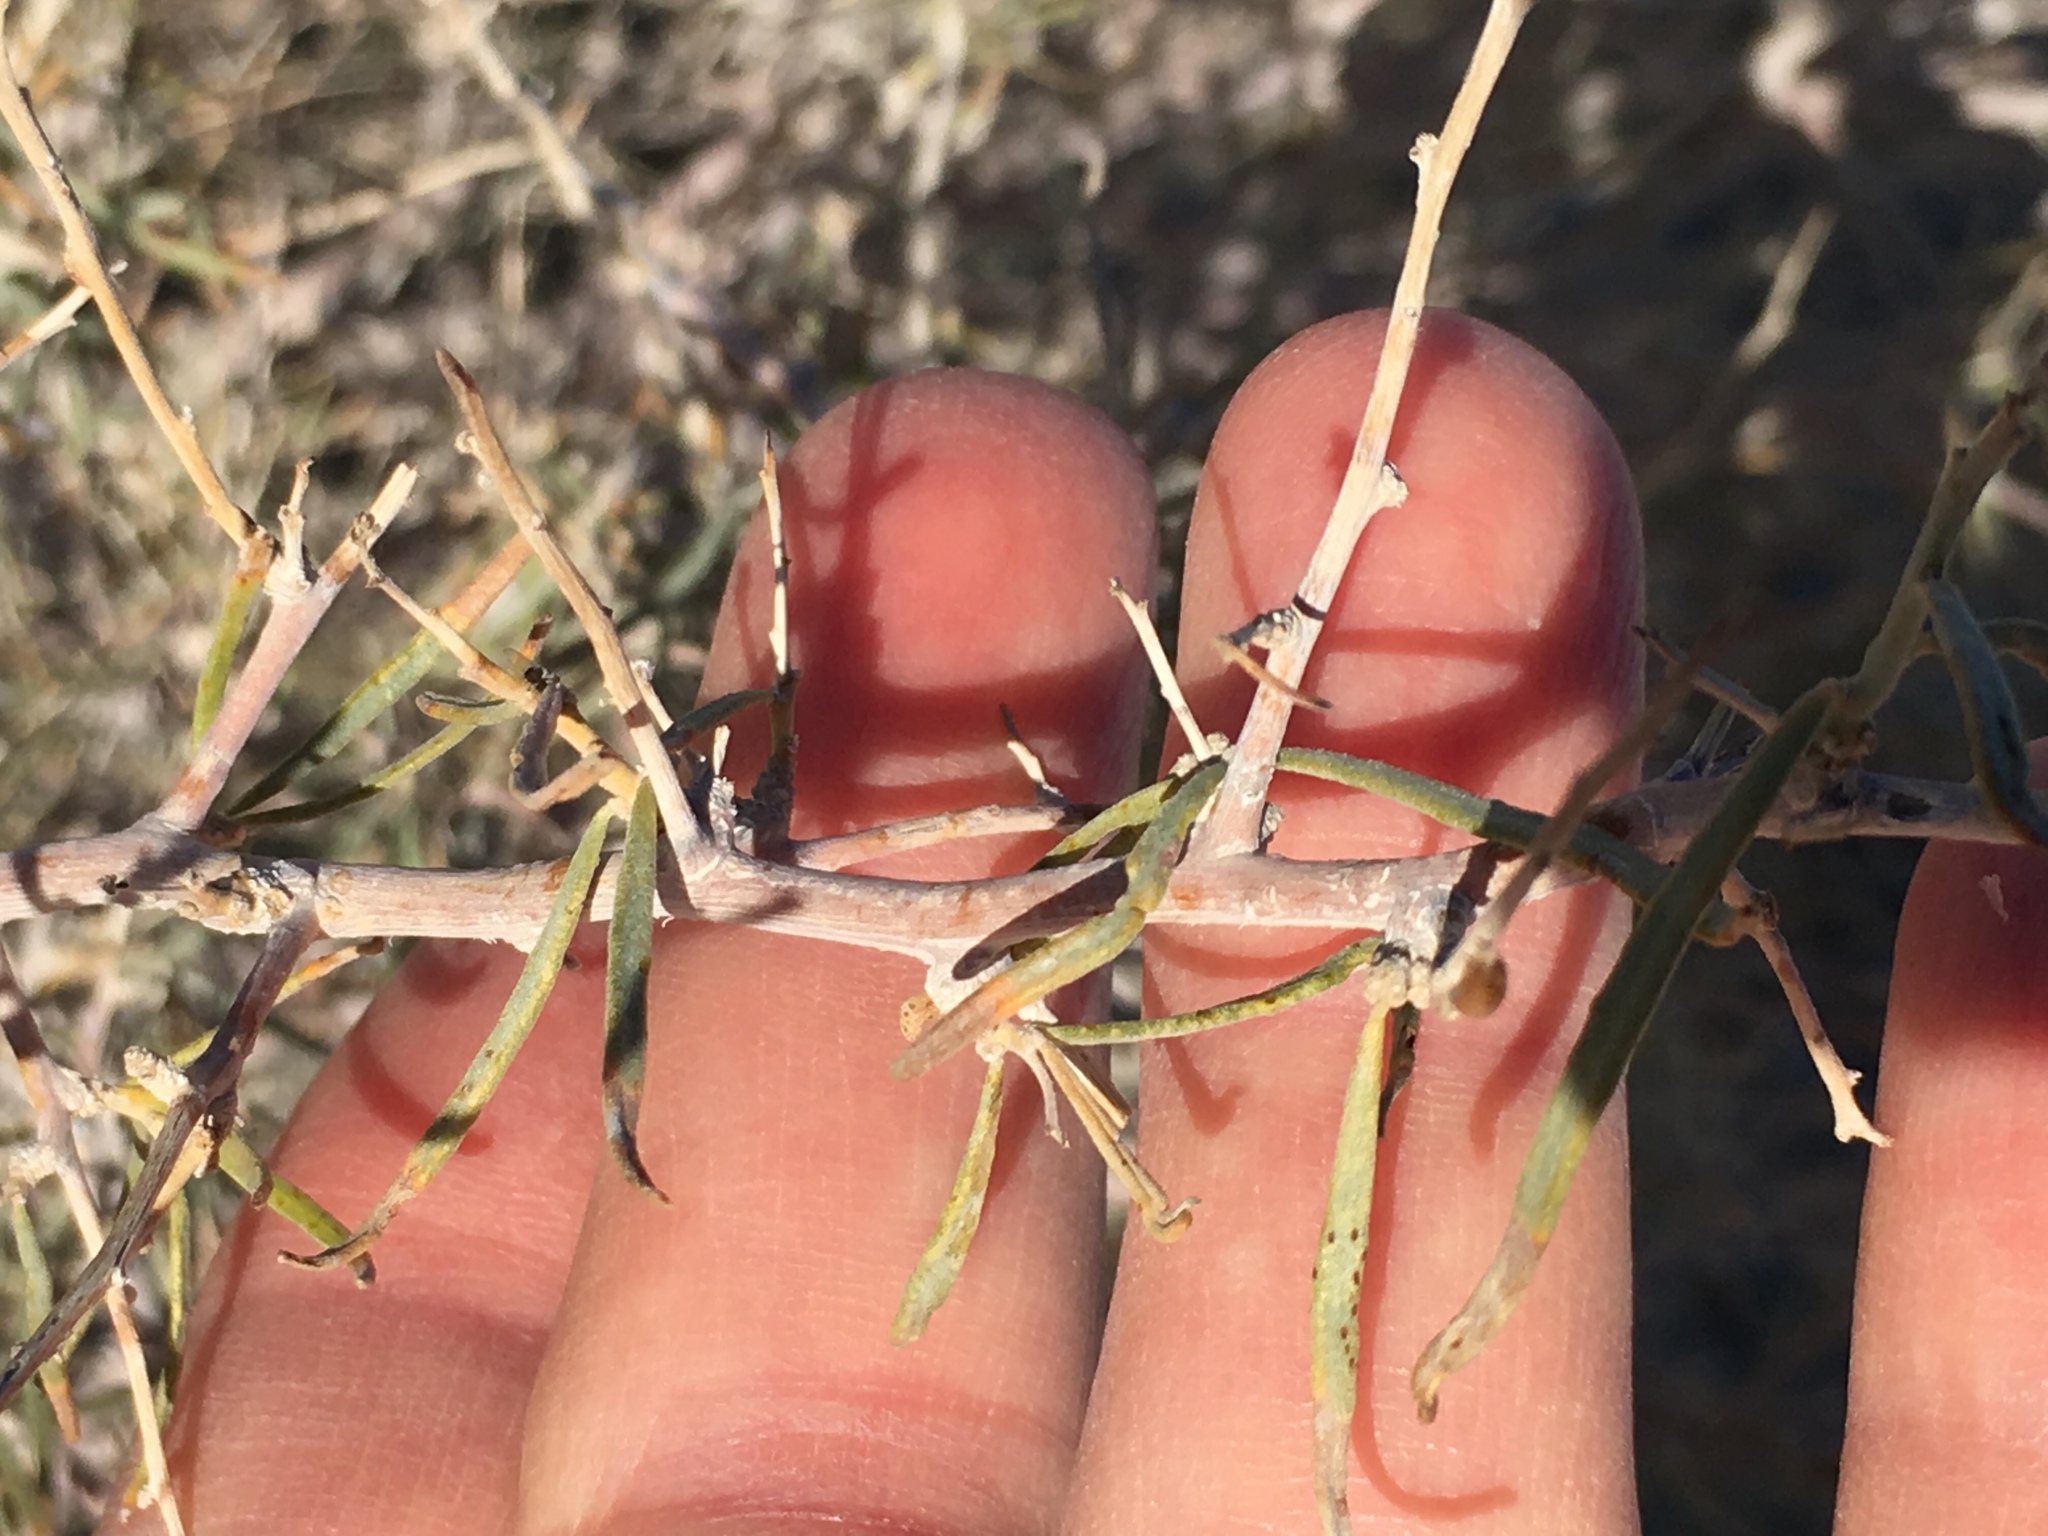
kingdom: Plantae
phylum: Tracheophyta
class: Magnoliopsida
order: Fabales
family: Fabaceae
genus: Psorothamnus
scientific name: Psorothamnus schottii
